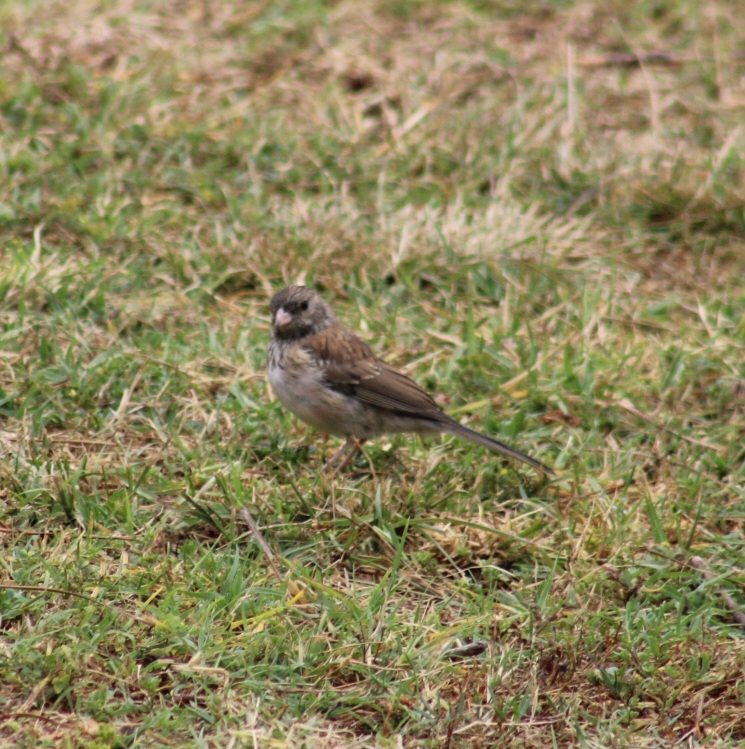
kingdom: Animalia
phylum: Chordata
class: Aves
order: Passeriformes
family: Passerellidae
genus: Junco
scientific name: Junco hyemalis
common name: Dark-eyed junco
